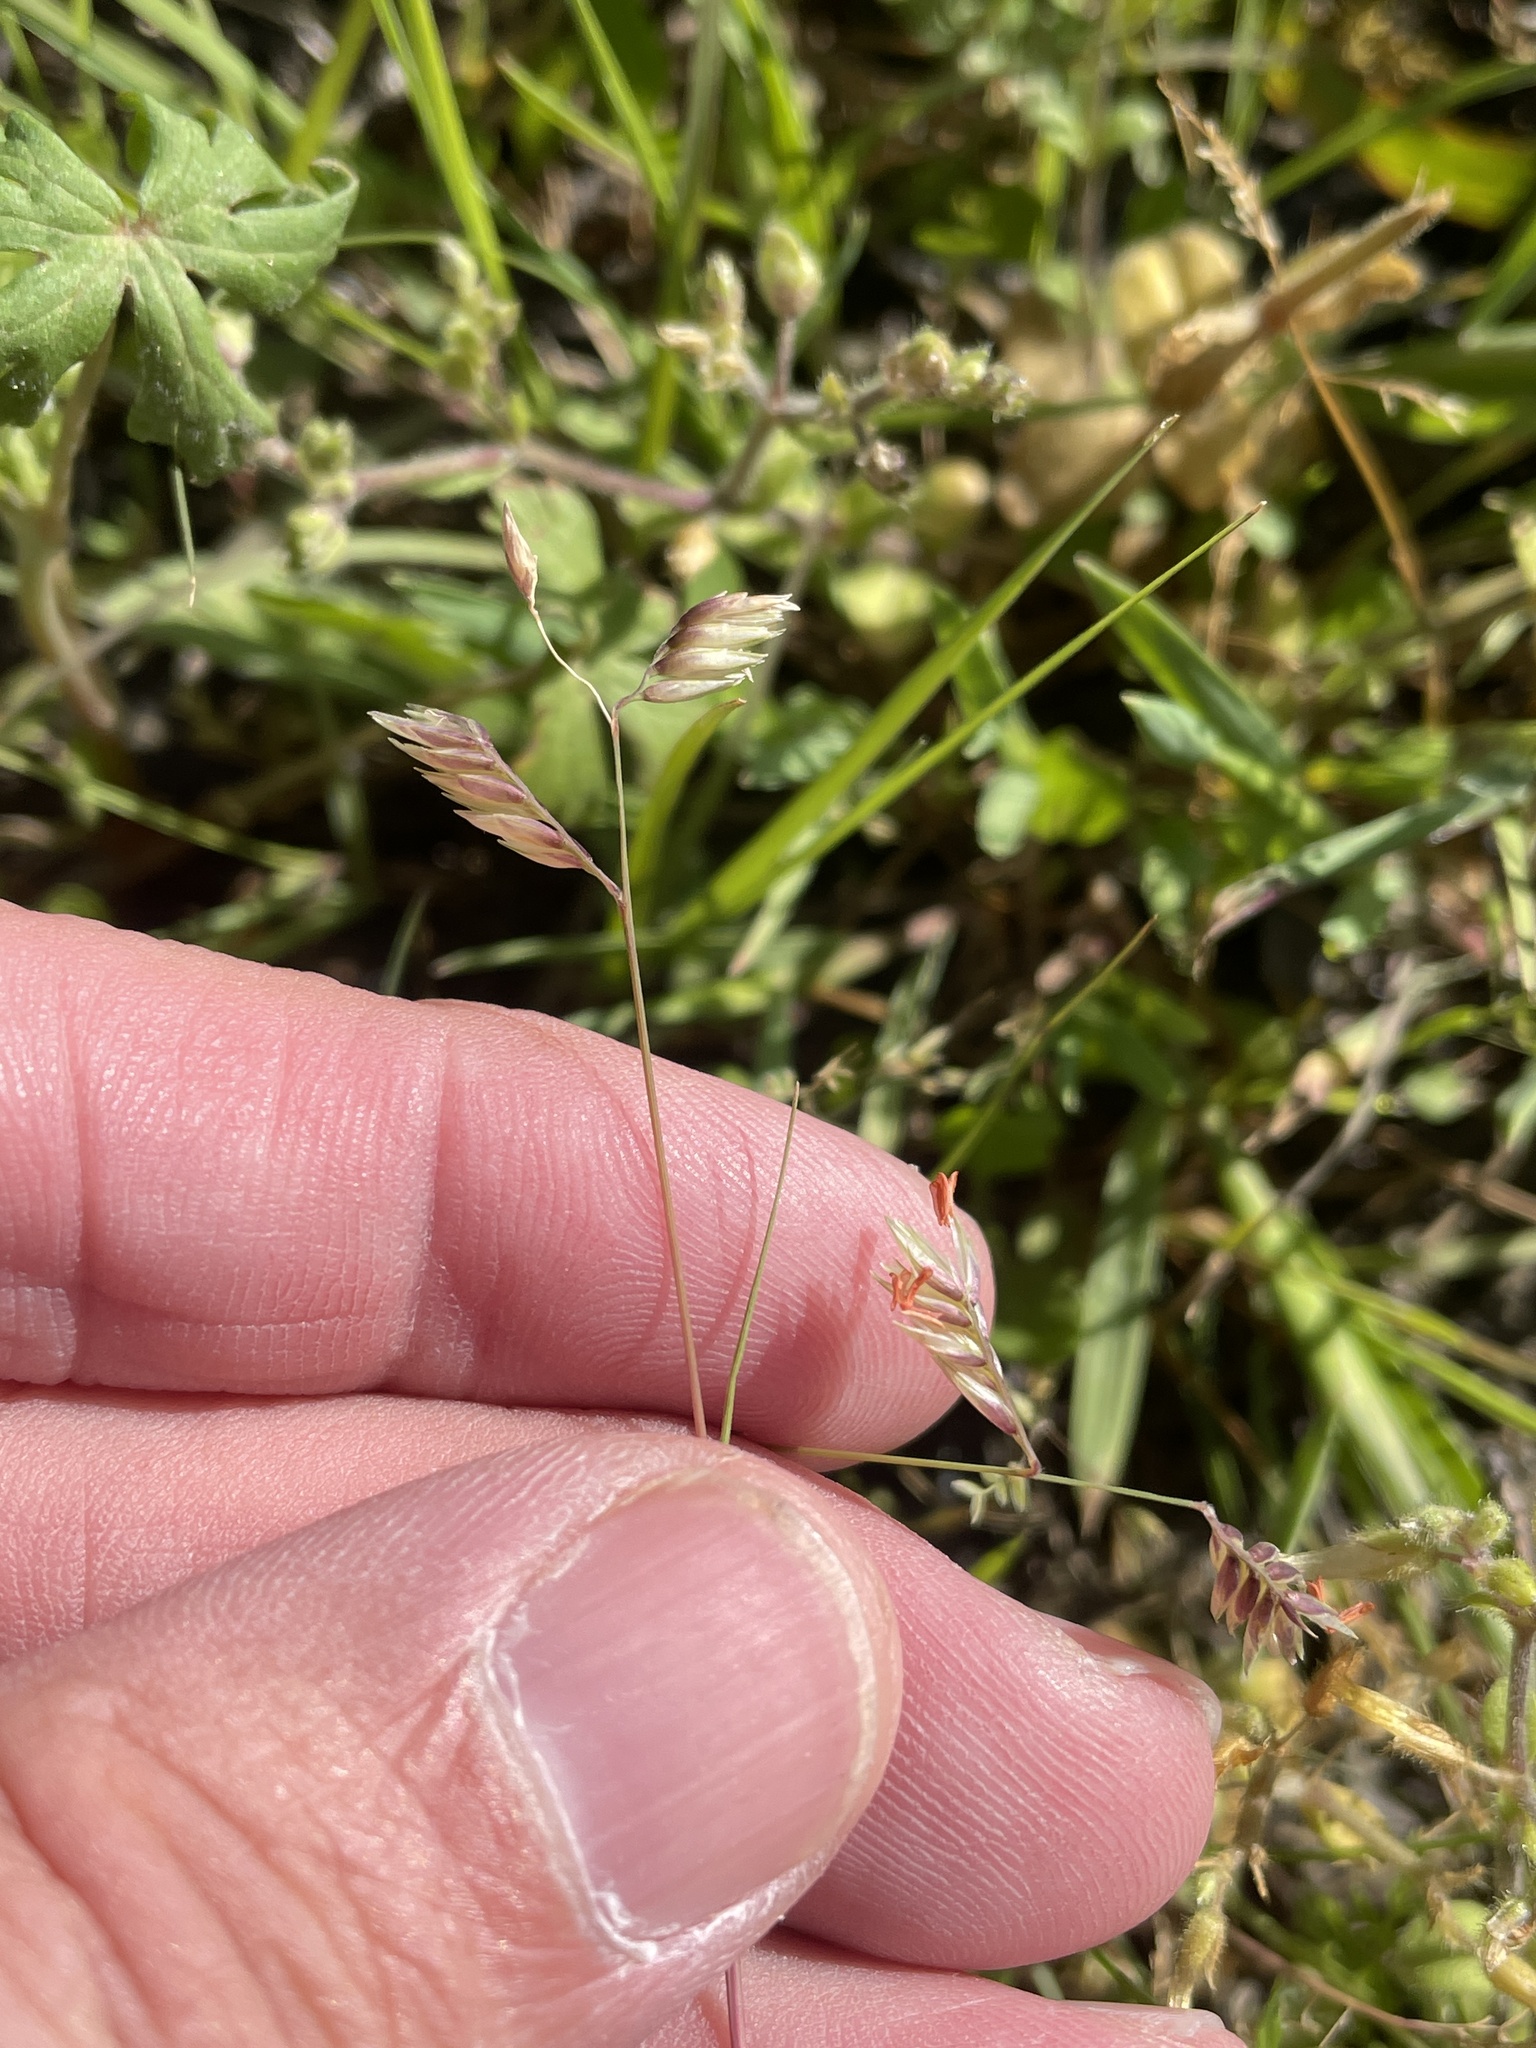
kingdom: Plantae
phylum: Tracheophyta
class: Liliopsida
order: Poales
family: Poaceae
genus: Bouteloua
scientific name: Bouteloua dactyloides
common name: Buffalo grass
